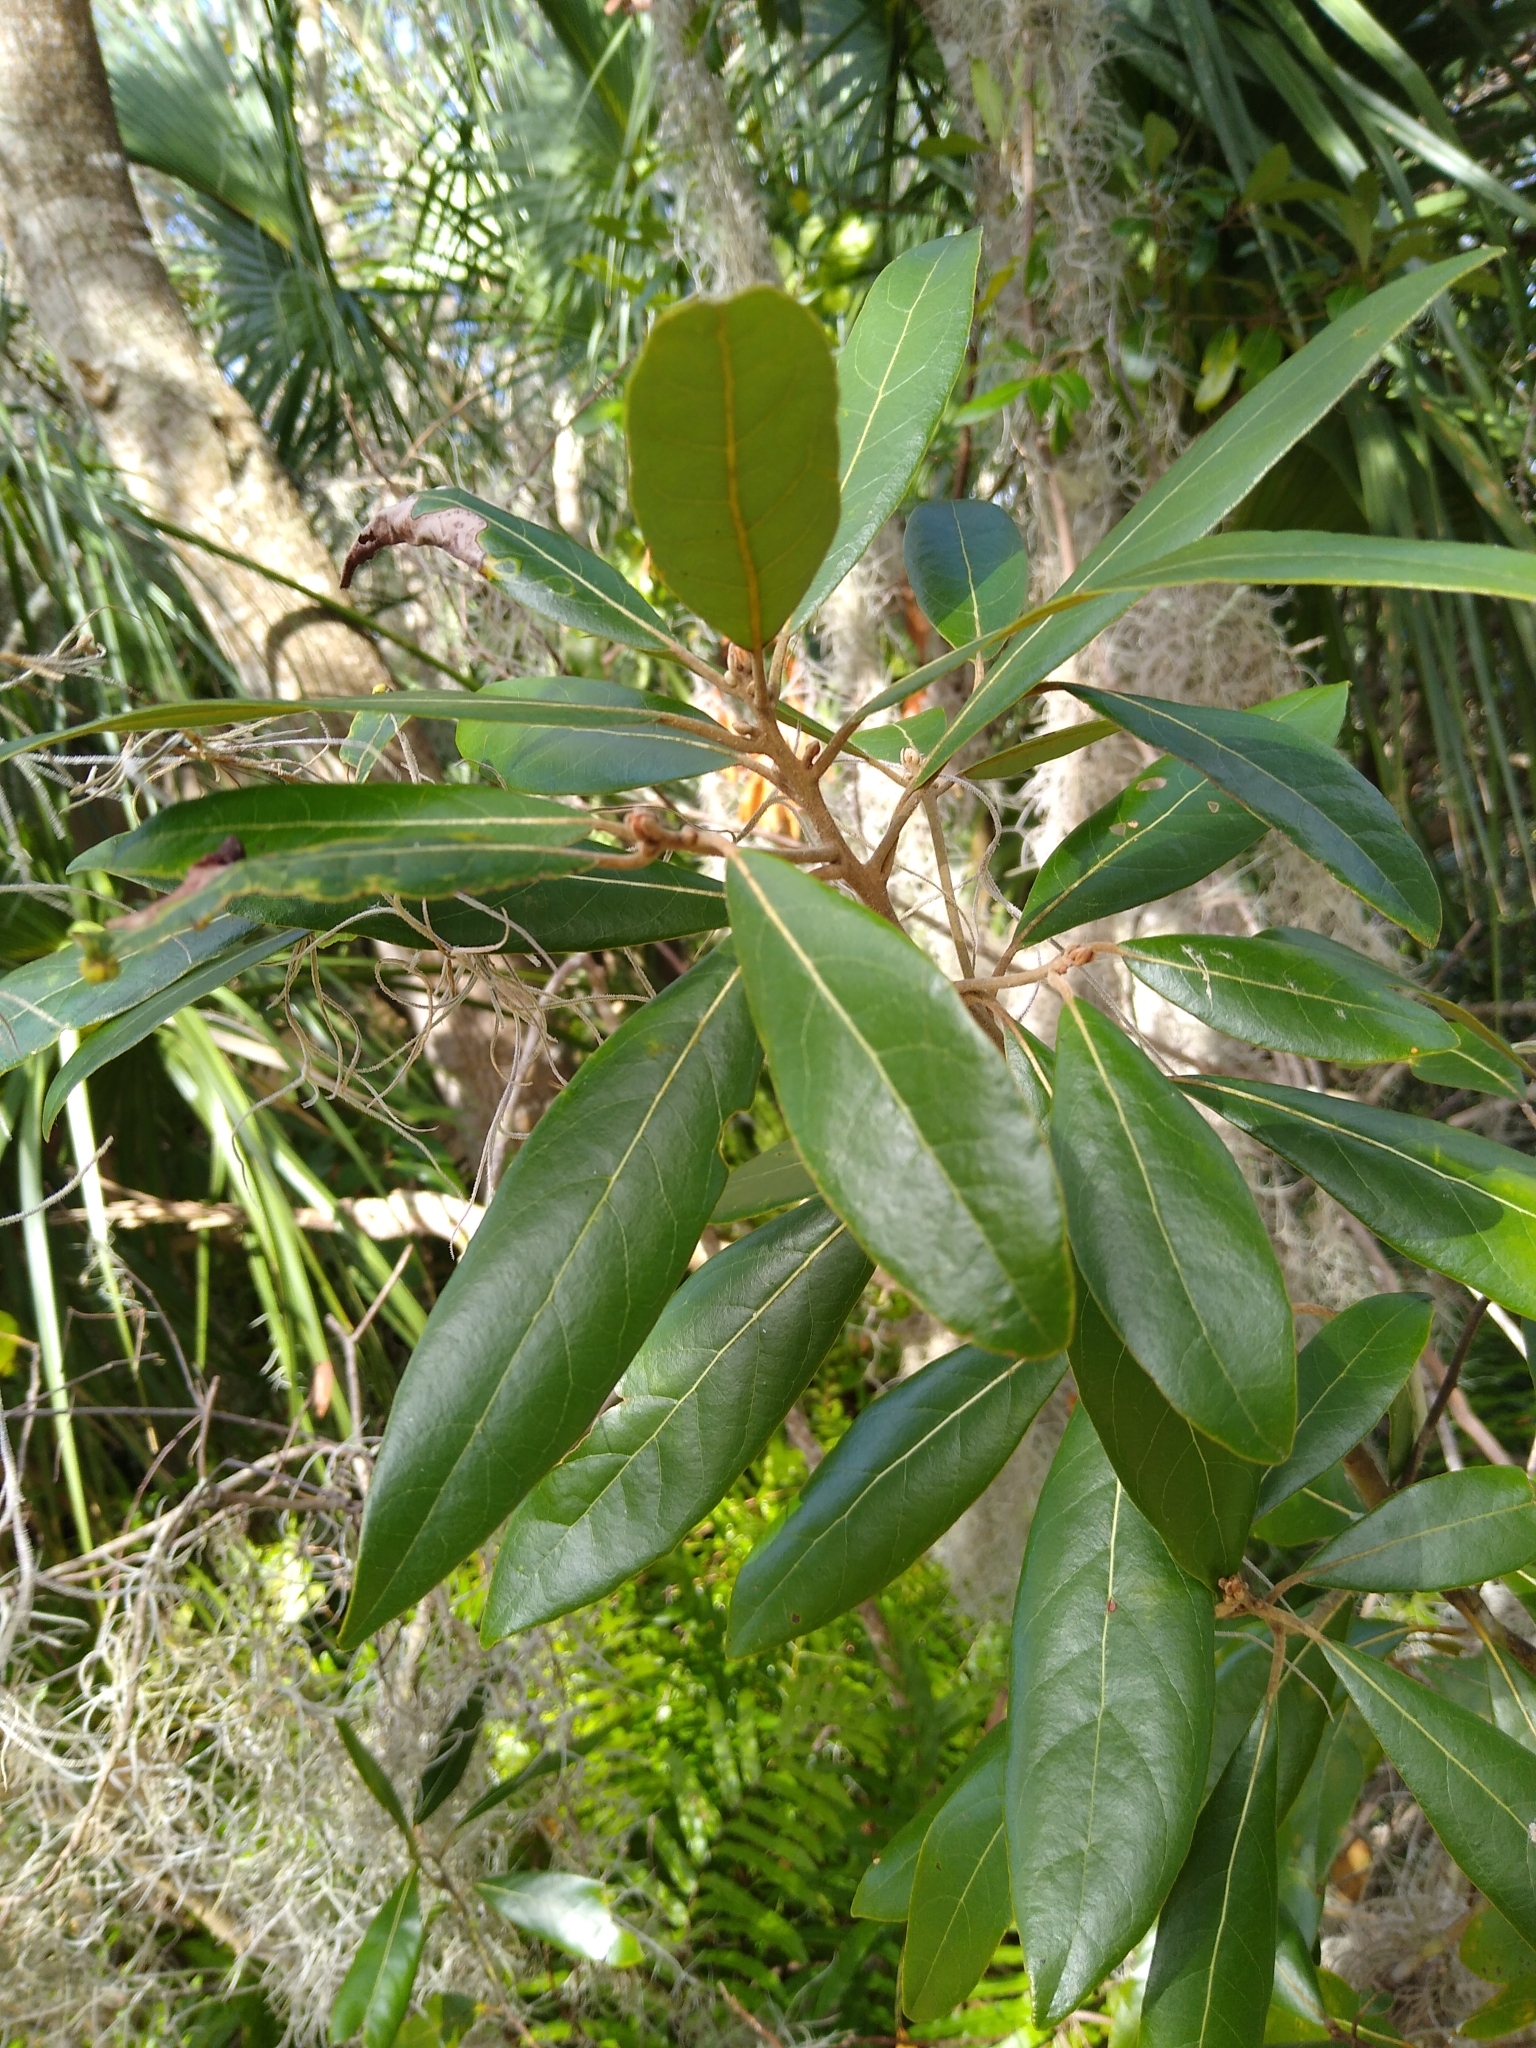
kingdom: Plantae
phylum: Tracheophyta
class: Magnoliopsida
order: Laurales
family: Lauraceae
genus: Persea
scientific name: Persea palustris
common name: Swampbay
